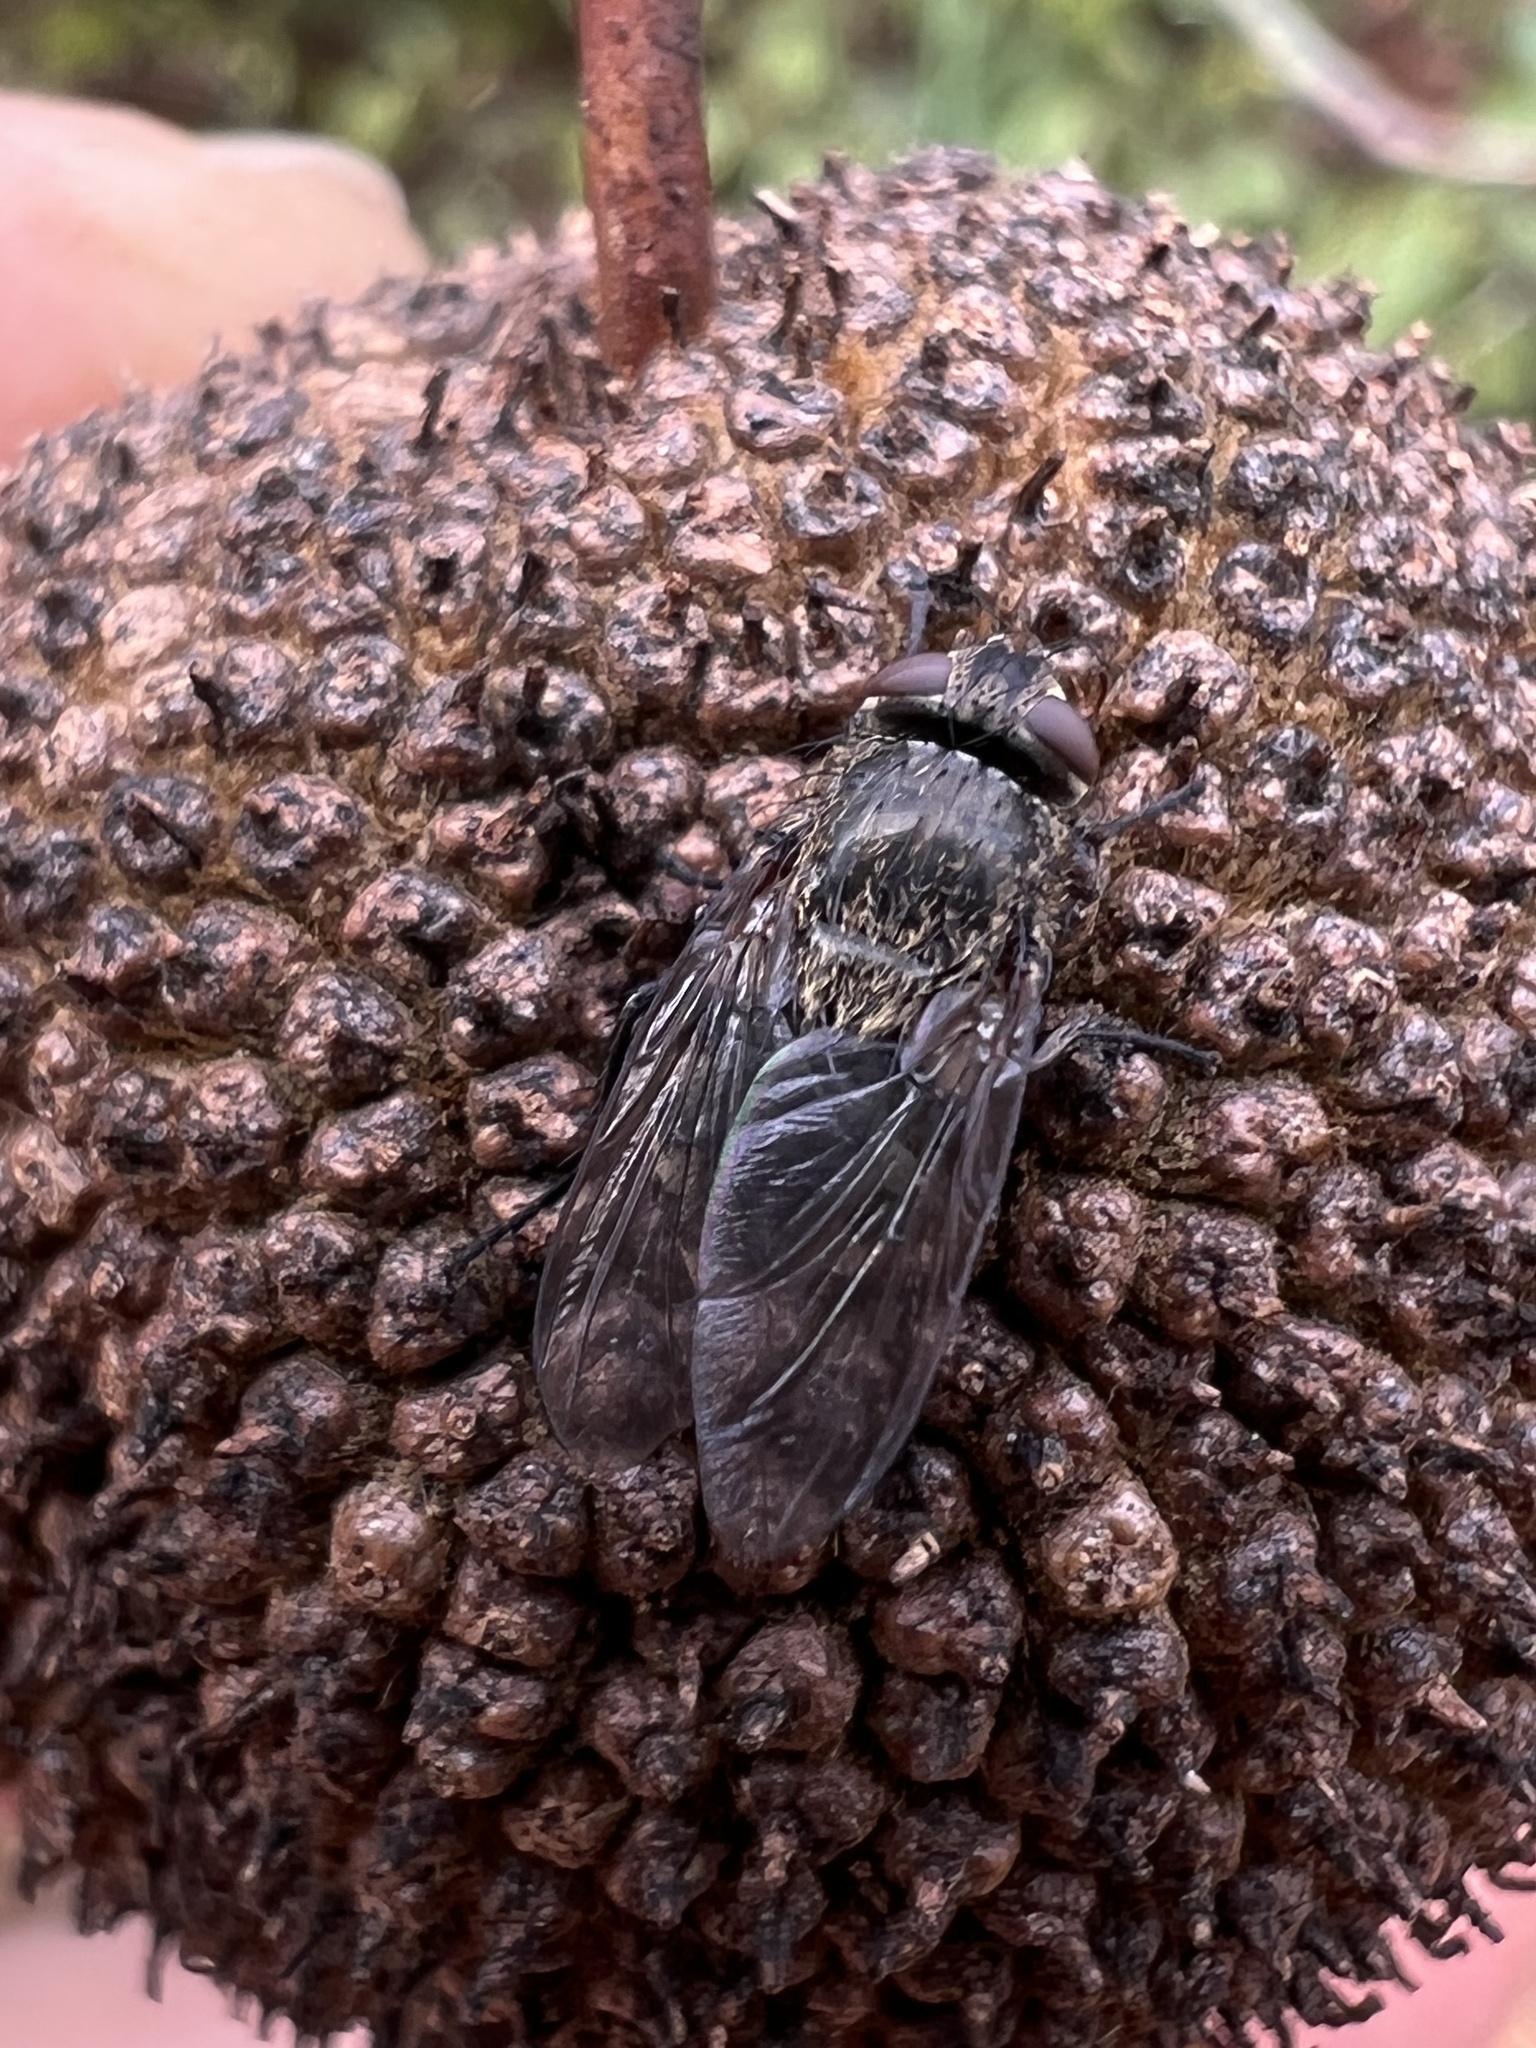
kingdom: Animalia
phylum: Arthropoda
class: Insecta
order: Diptera
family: Polleniidae
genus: Pollenia
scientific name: Pollenia
